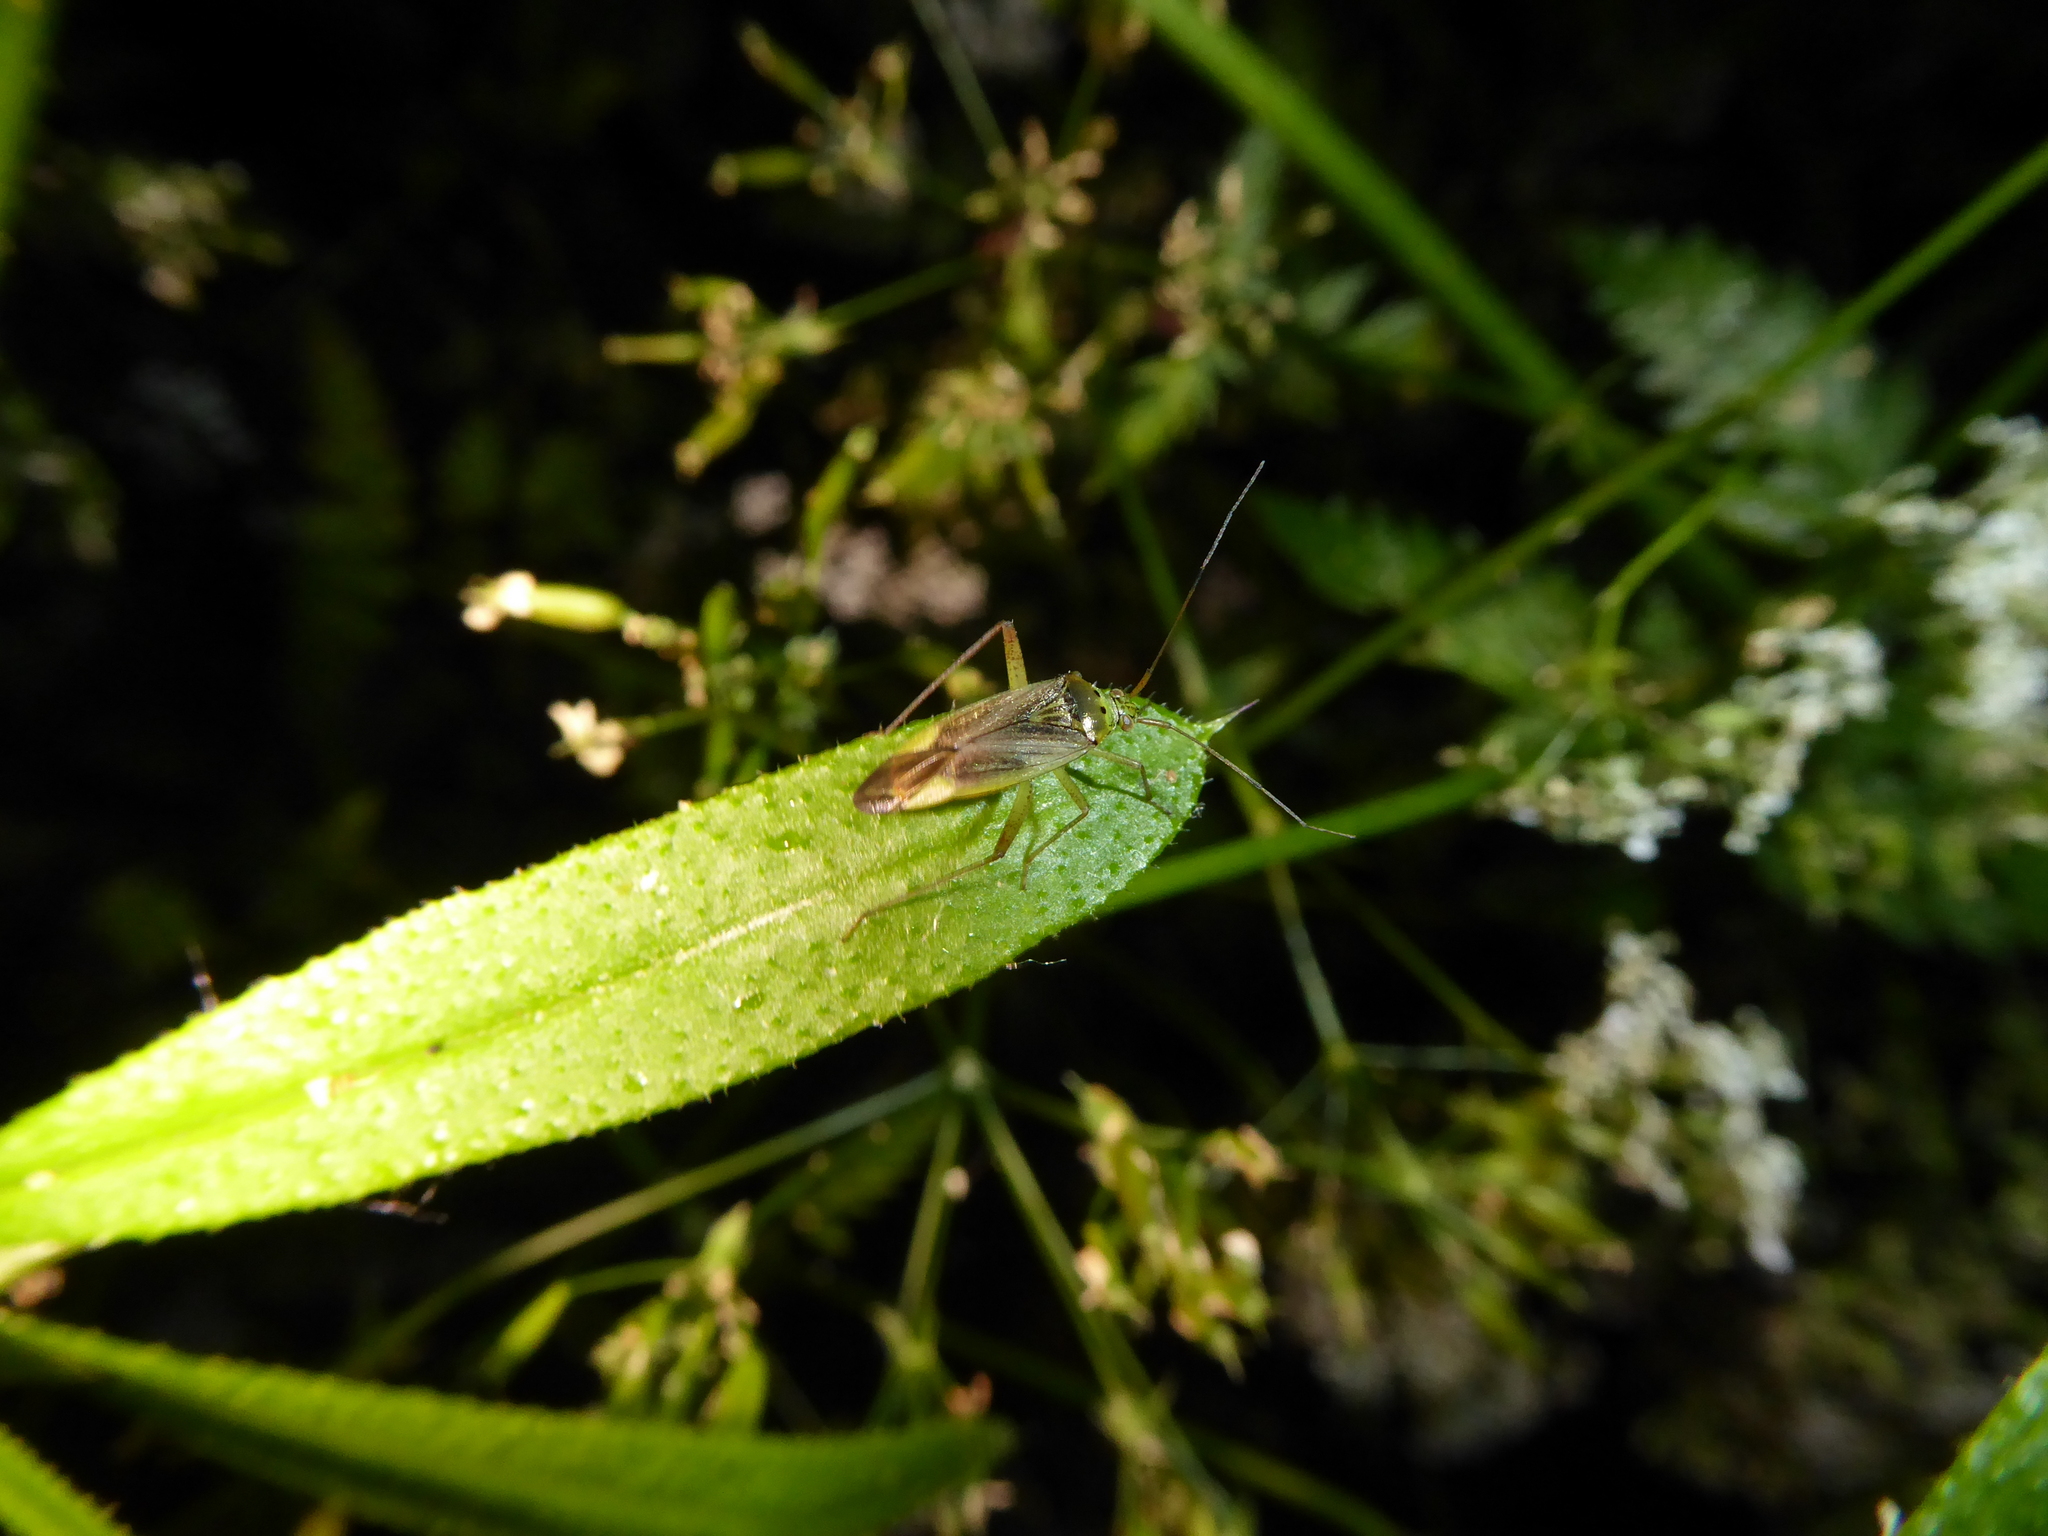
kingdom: Animalia
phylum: Arthropoda
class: Insecta
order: Hemiptera
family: Miridae
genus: Closterotomus
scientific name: Closterotomus trivialis
